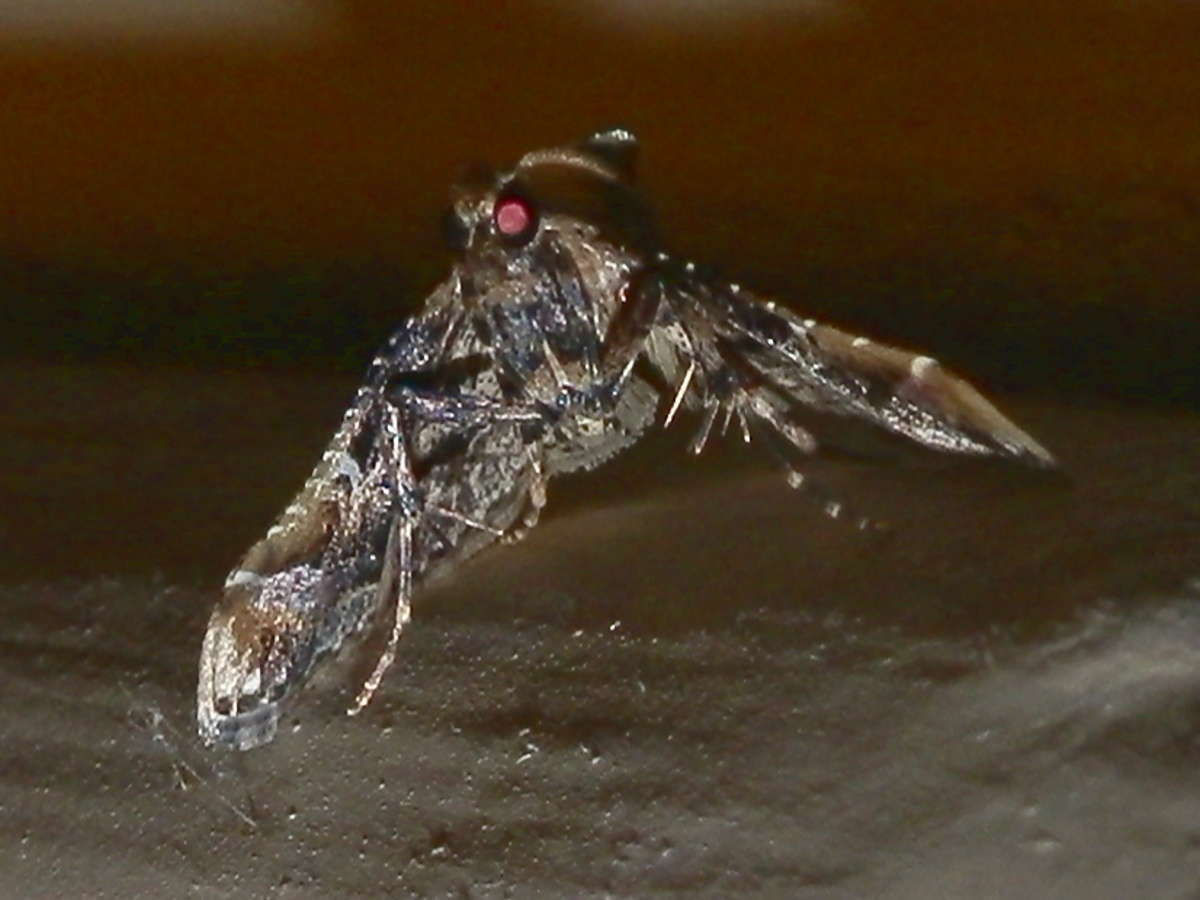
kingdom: Animalia
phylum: Arthropoda
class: Insecta
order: Lepidoptera
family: Pyralidae
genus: Scenedra
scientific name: Scenedra decoratalis
